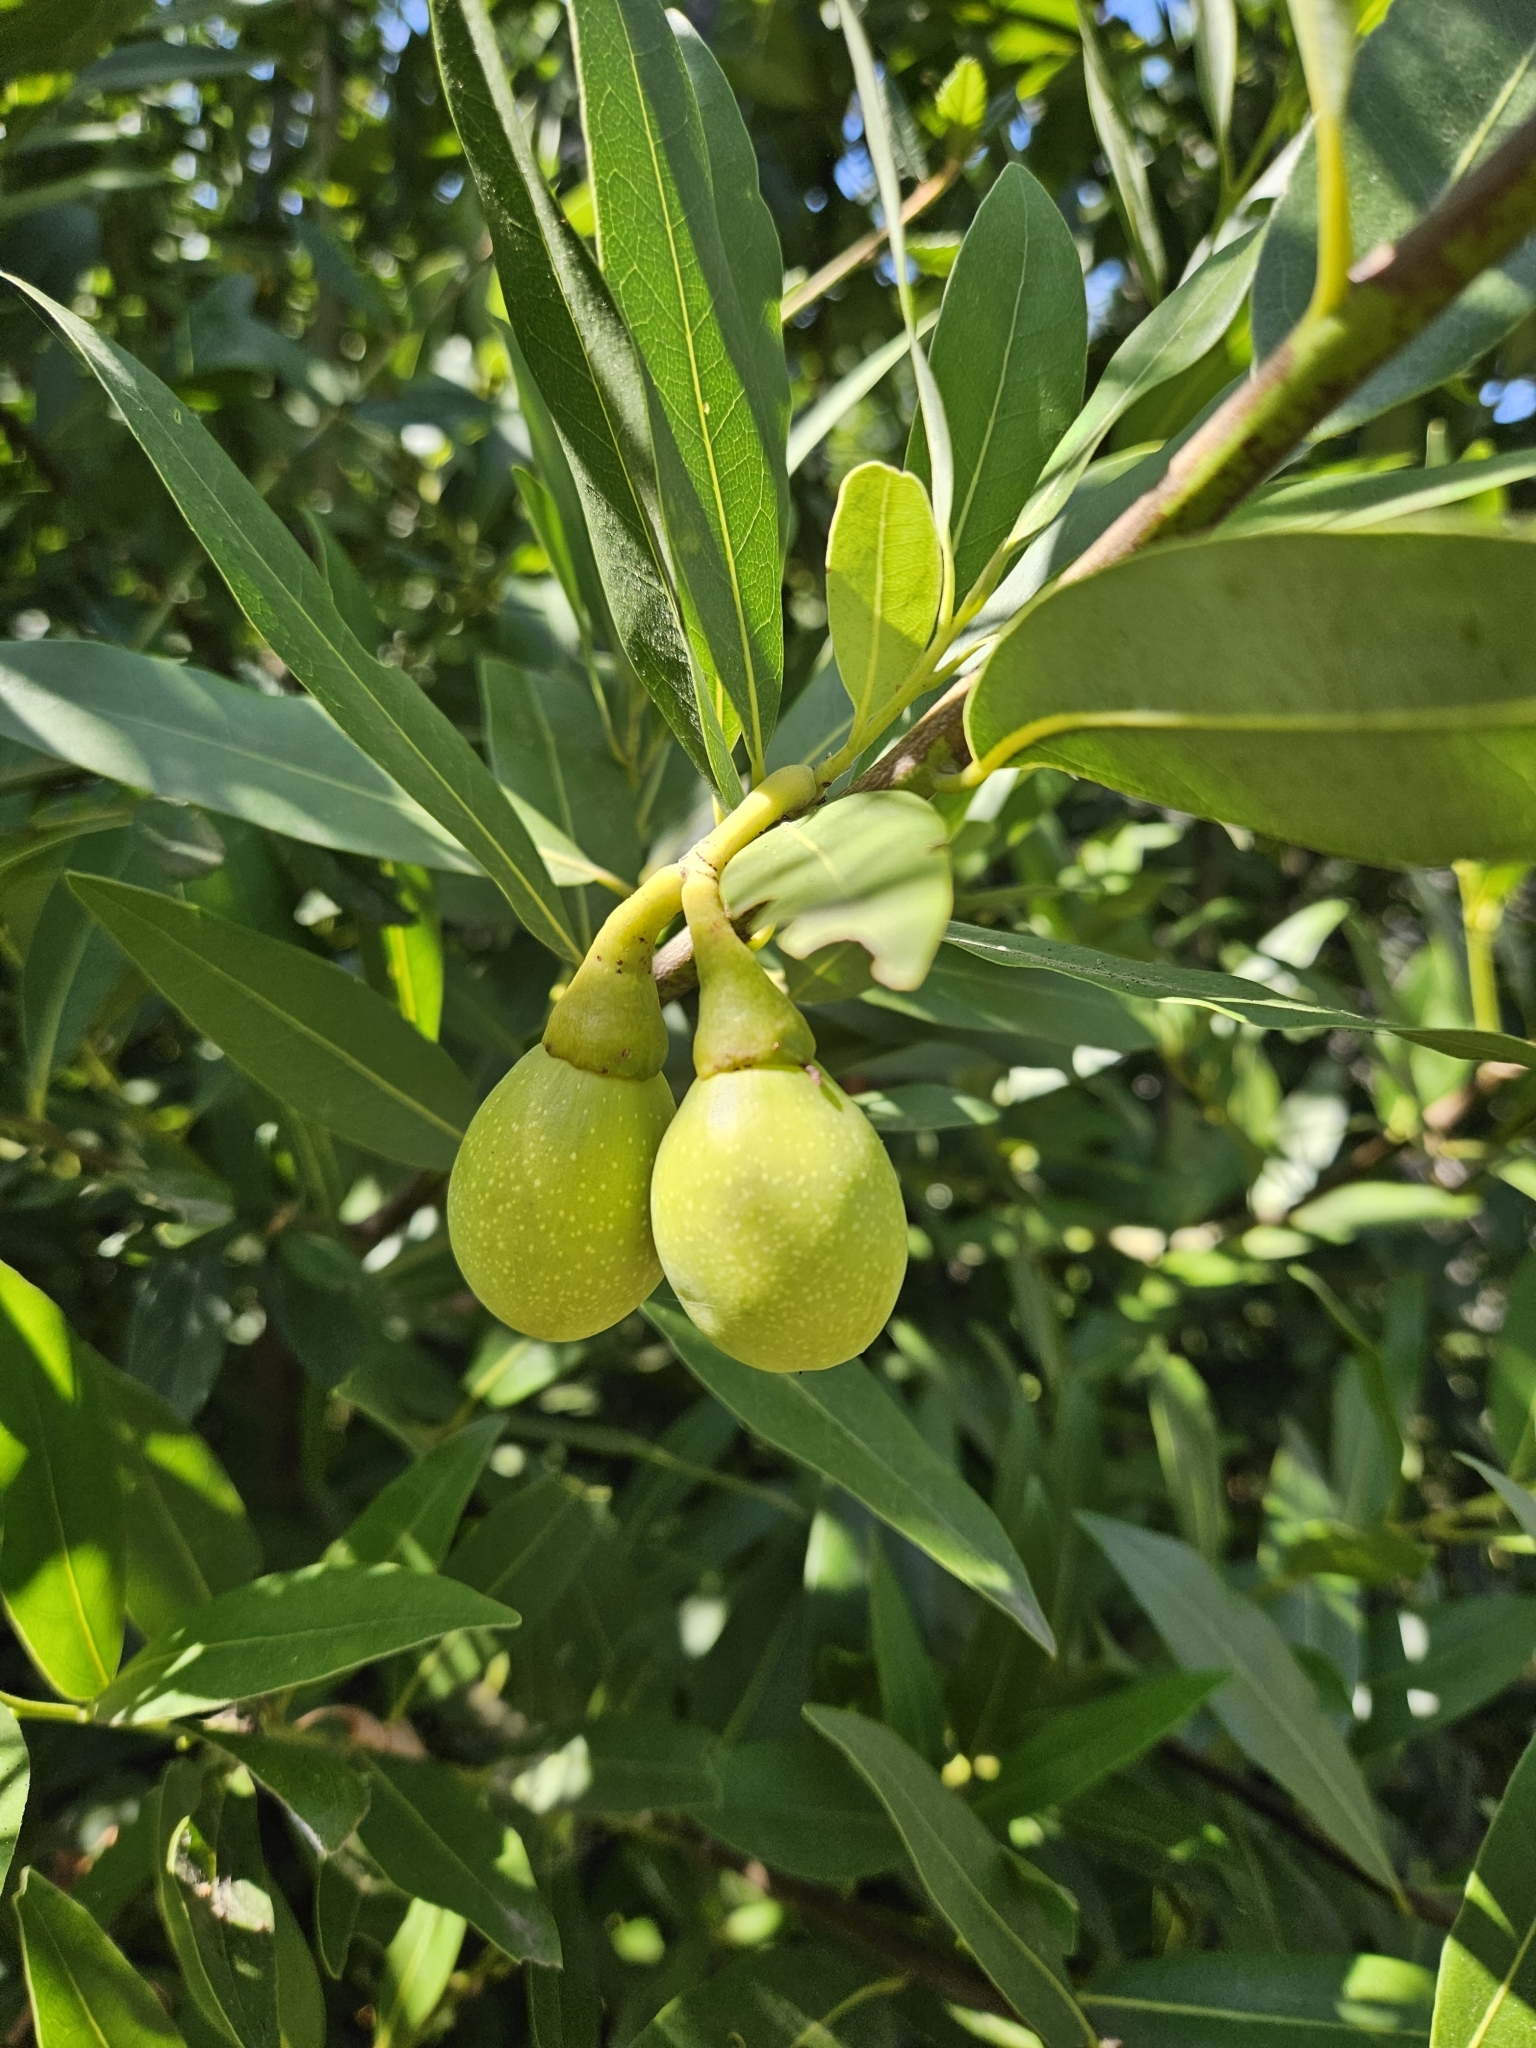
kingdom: Plantae
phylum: Tracheophyta
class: Magnoliopsida
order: Laurales
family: Lauraceae
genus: Umbellularia
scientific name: Umbellularia californica
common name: California bay
